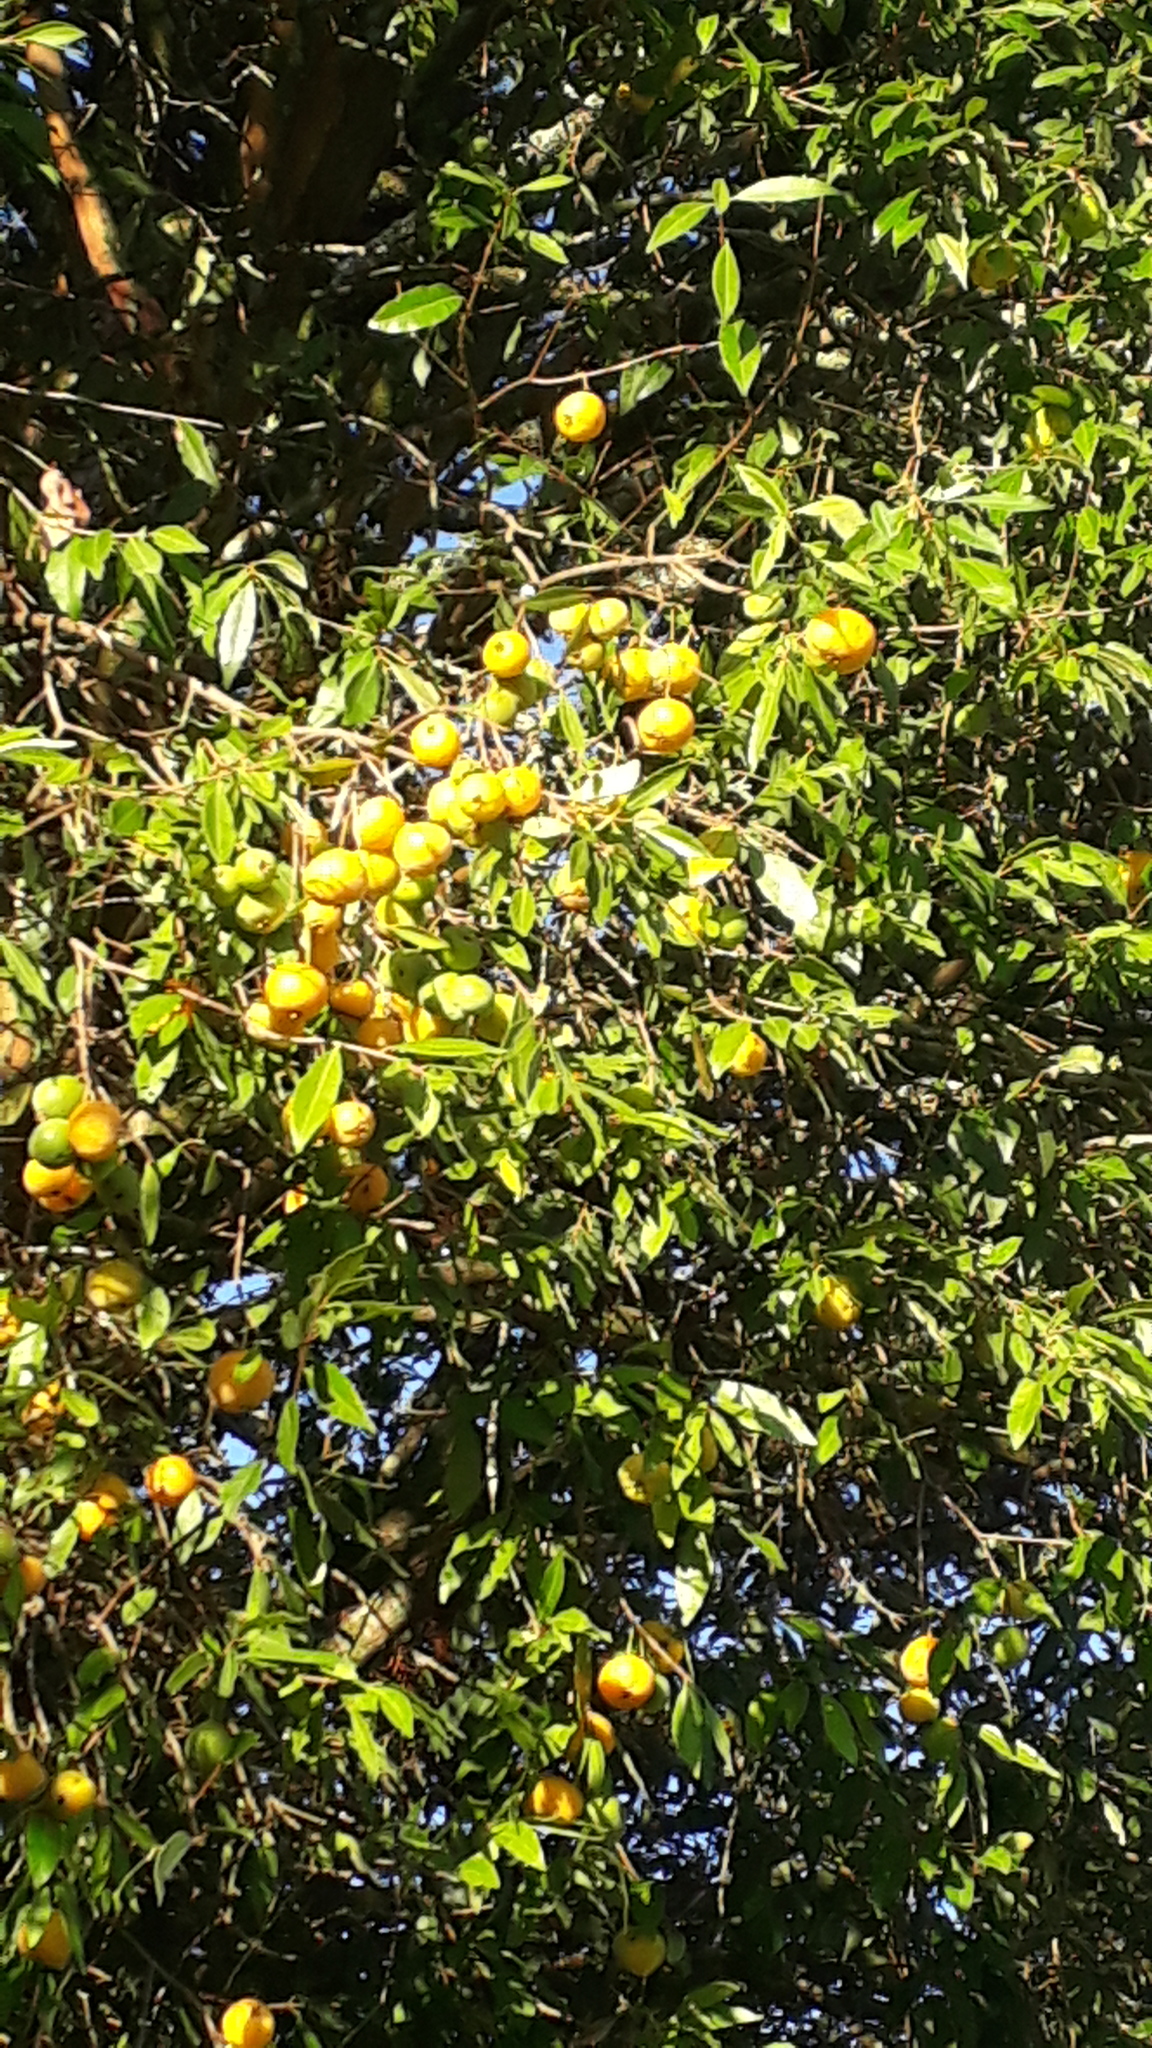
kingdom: Plantae
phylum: Tracheophyta
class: Magnoliopsida
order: Myrtales
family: Myrtaceae
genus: Eugenia
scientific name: Eugenia pyriformis
